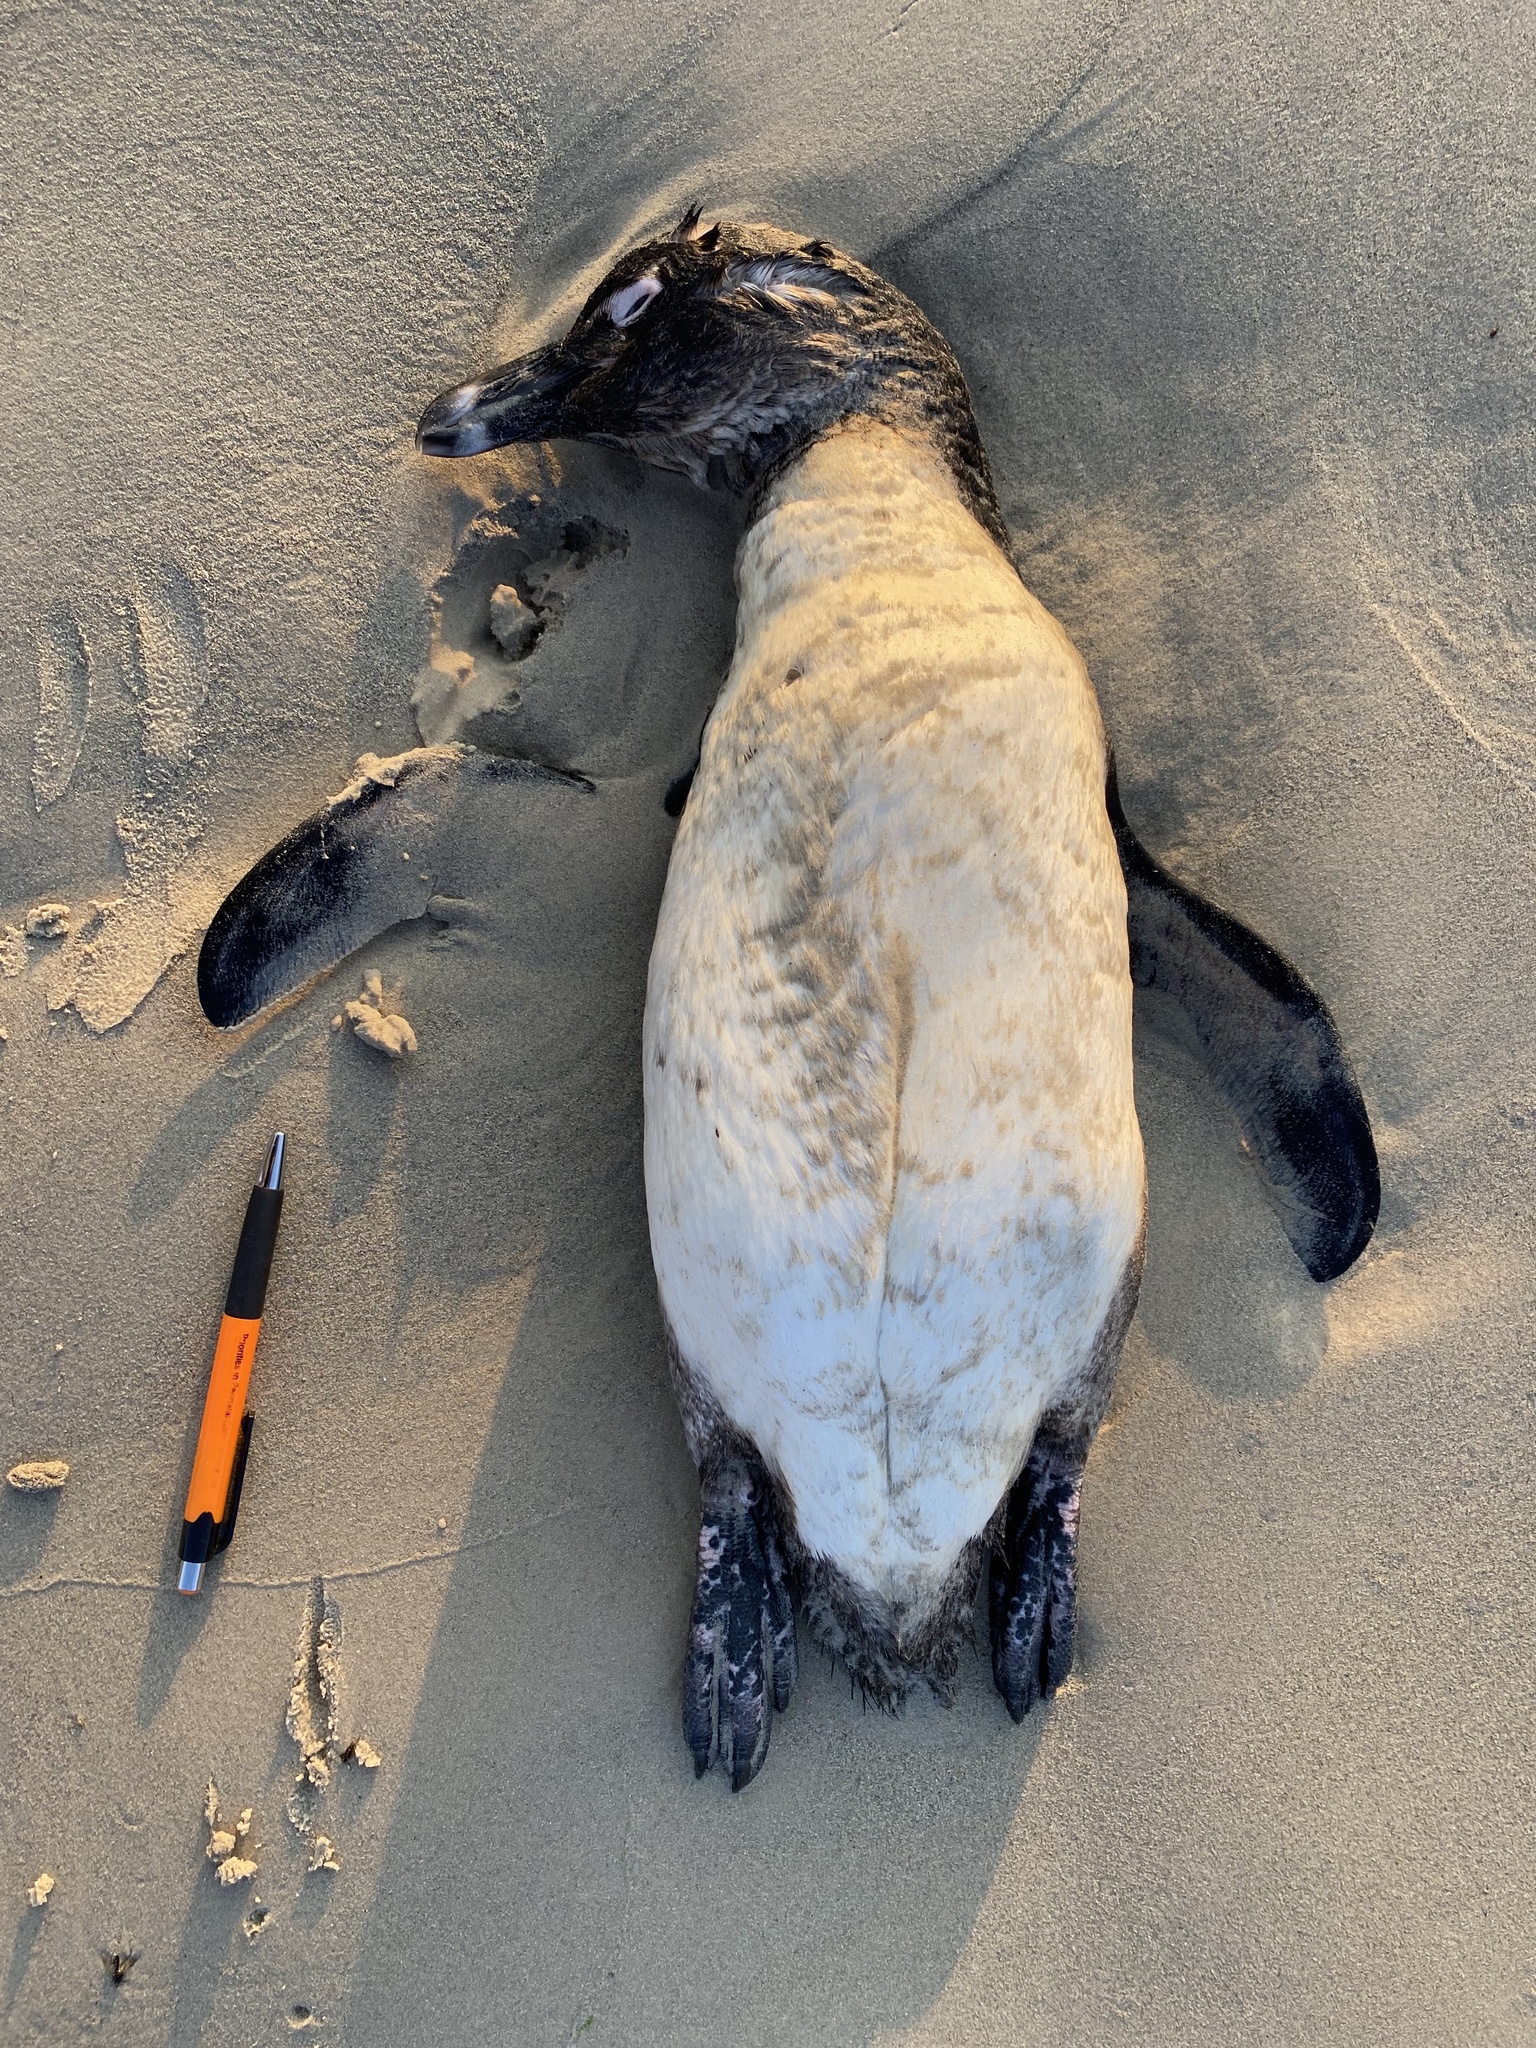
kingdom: Animalia
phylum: Chordata
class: Aves
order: Sphenisciformes
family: Spheniscidae
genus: Spheniscus
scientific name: Spheniscus demersus
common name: African penguin
